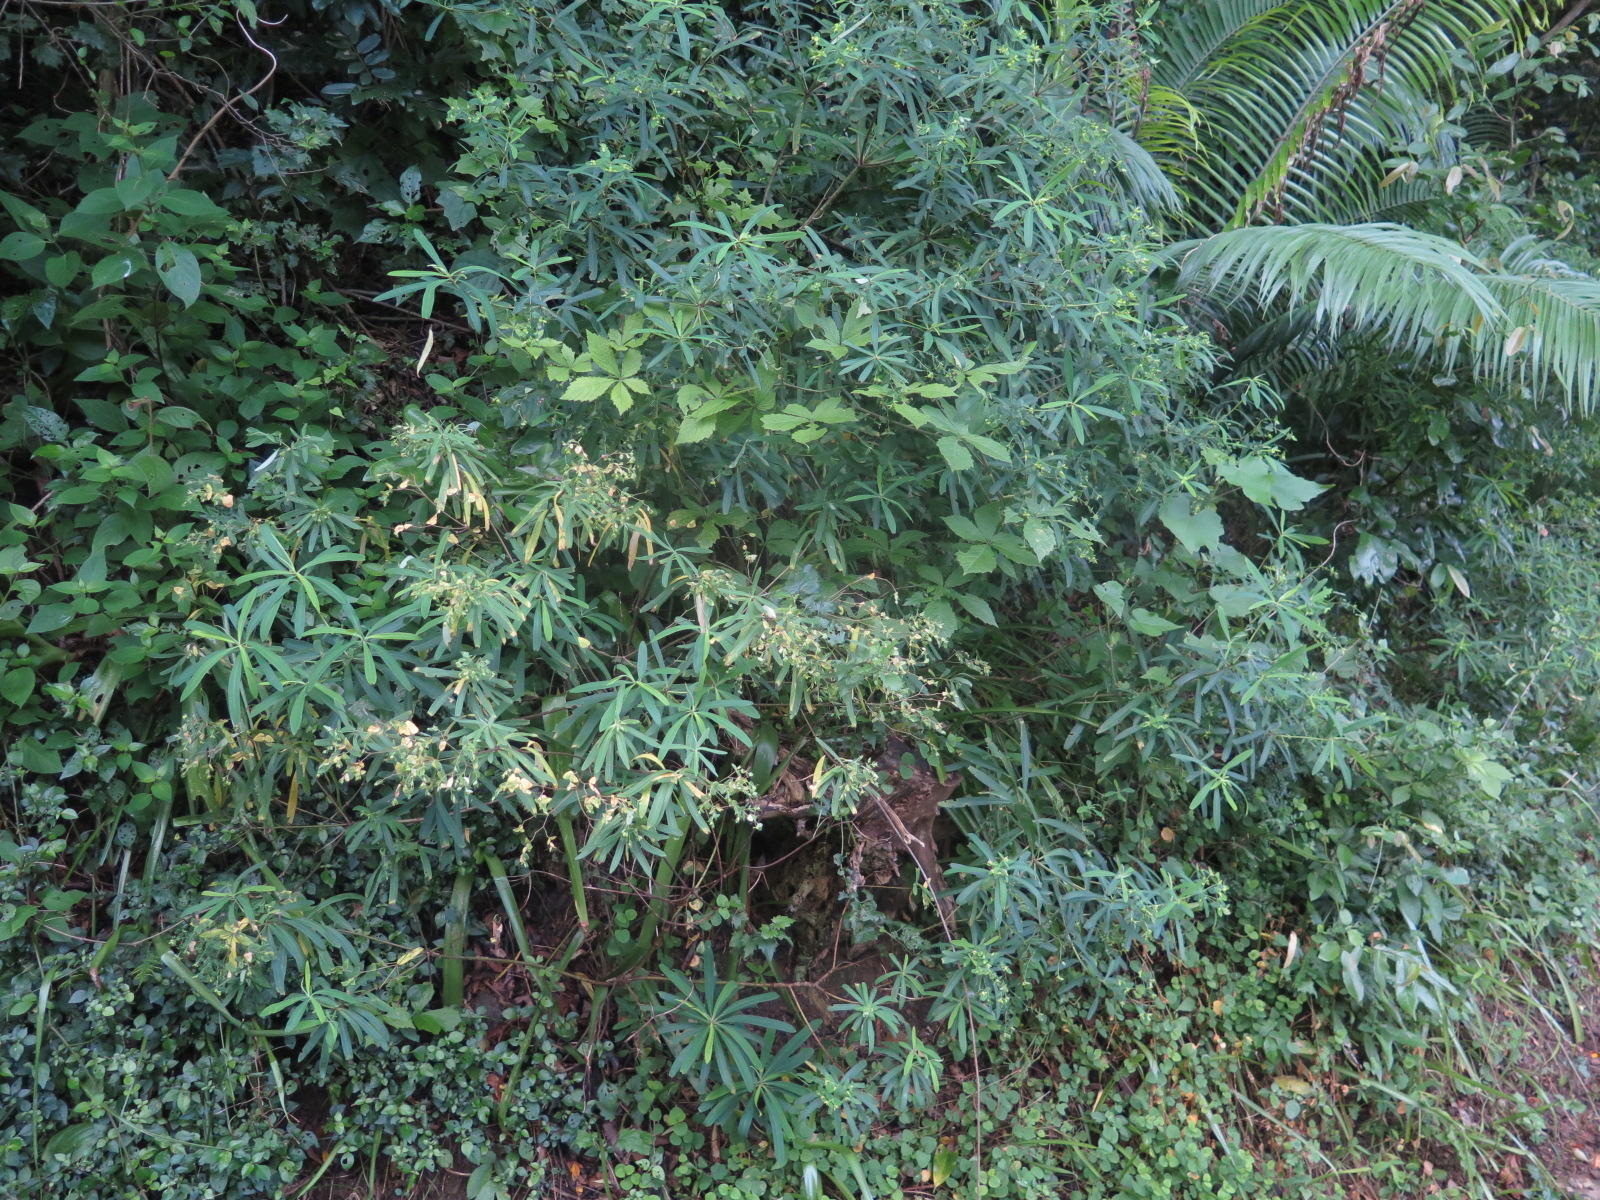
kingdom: Plantae
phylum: Tracheophyta
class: Magnoliopsida
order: Malpighiales
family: Euphorbiaceae
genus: Euphorbia
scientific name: Euphorbia kraussiana
